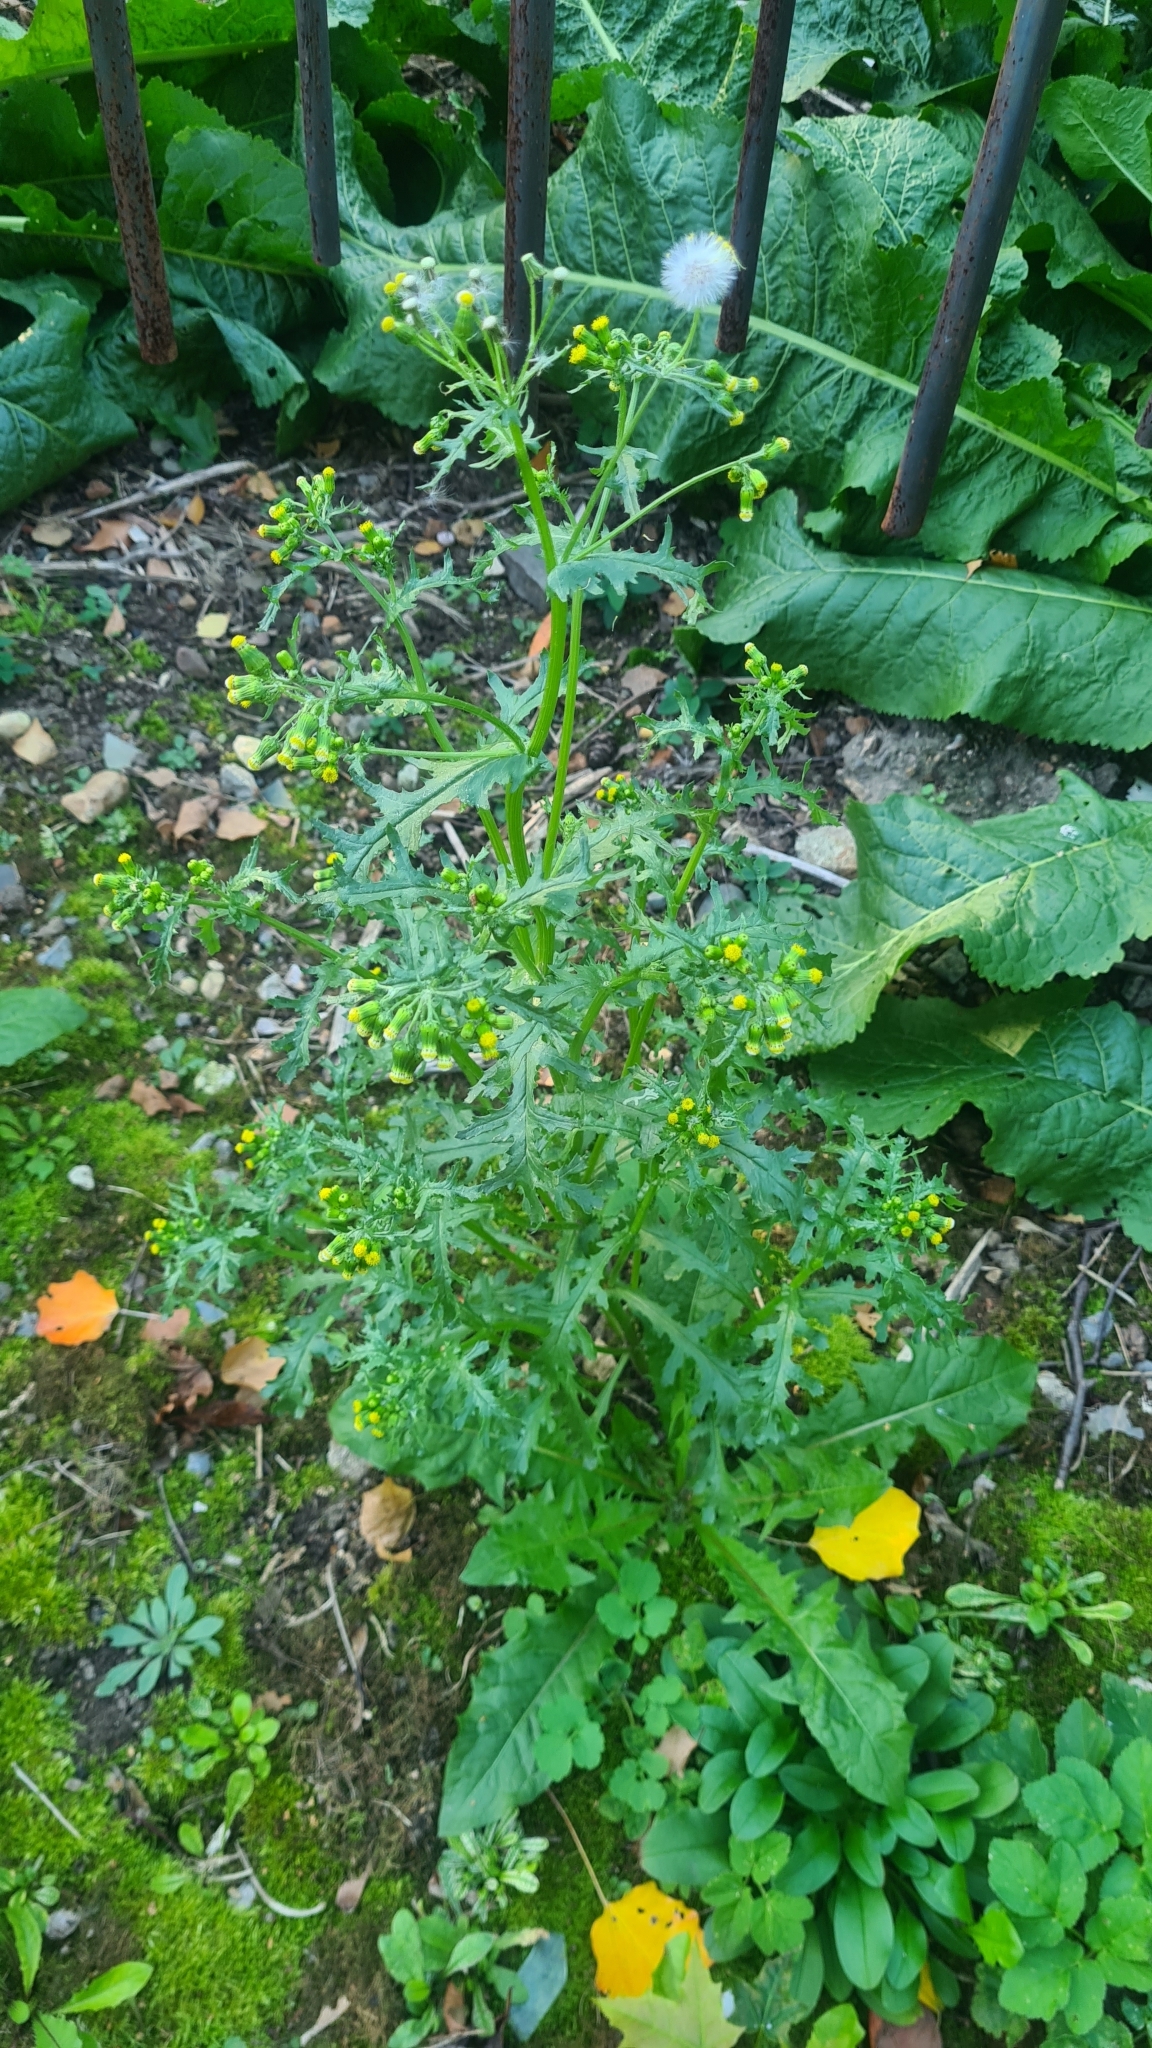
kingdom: Plantae
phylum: Tracheophyta
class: Magnoliopsida
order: Asterales
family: Asteraceae
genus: Senecio
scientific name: Senecio vulgaris
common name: Old-man-in-the-spring
